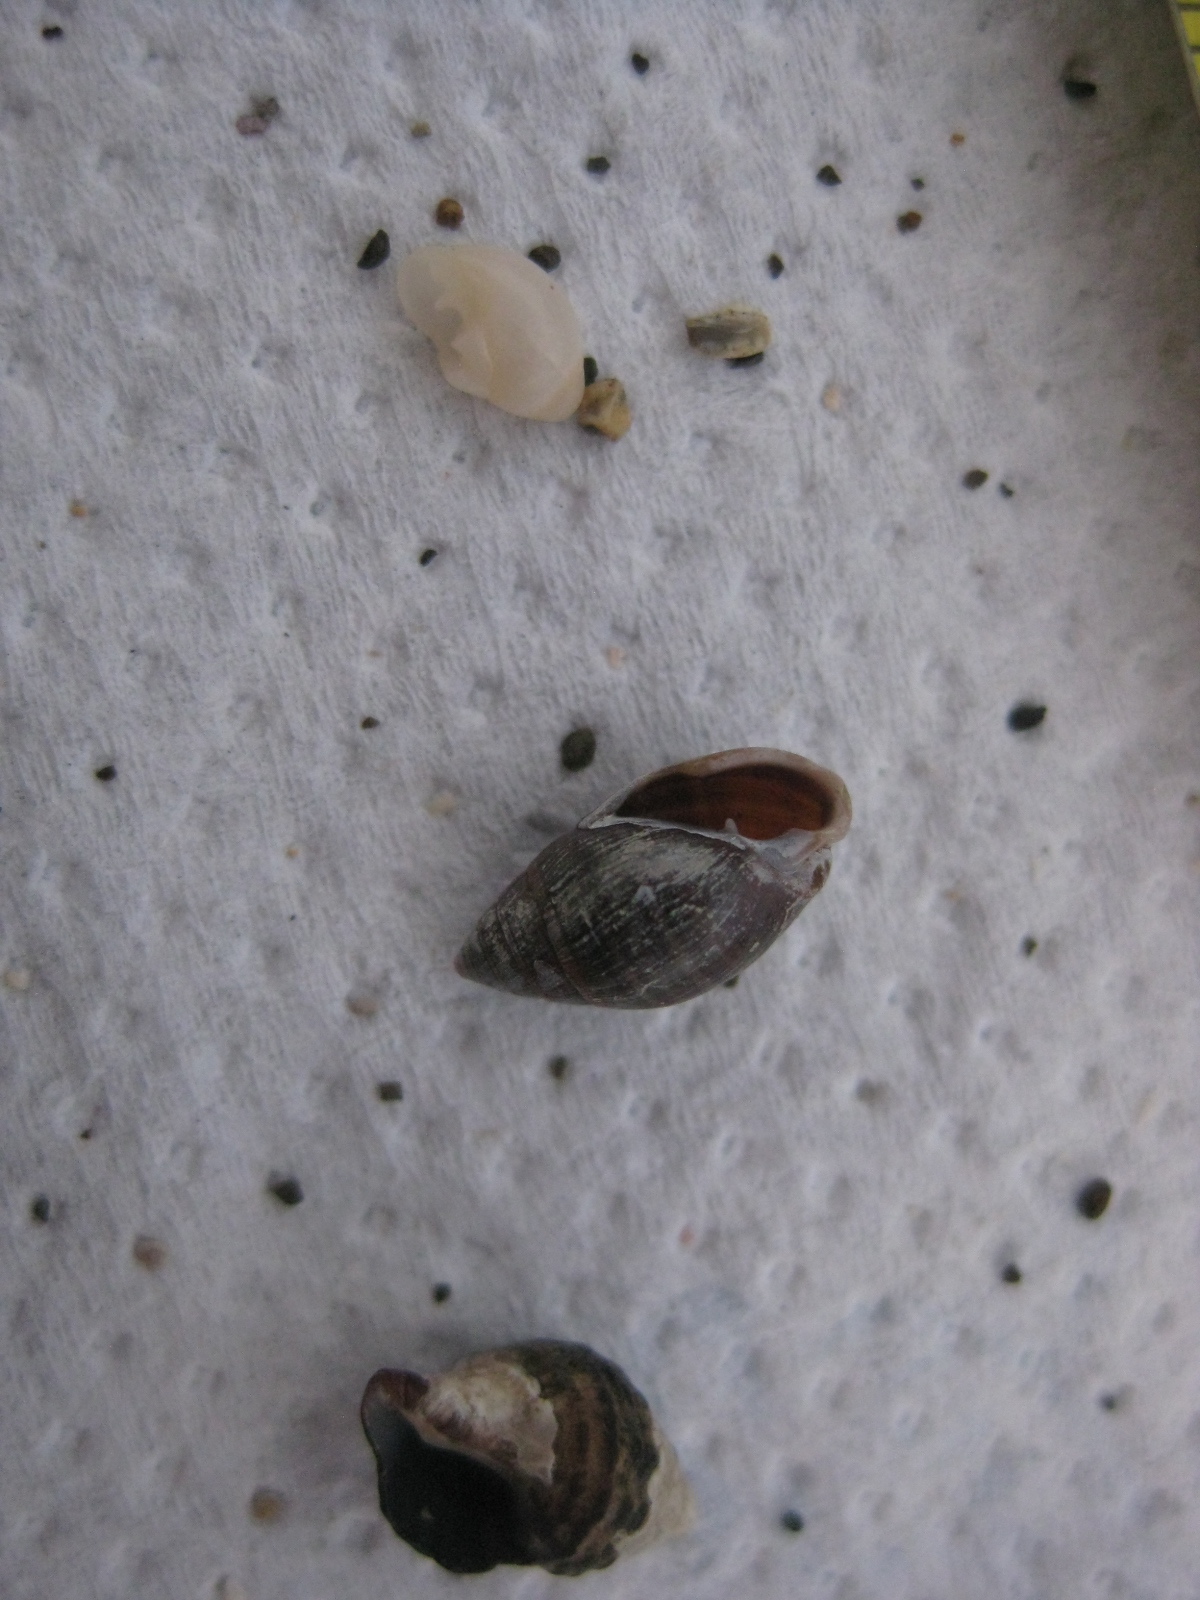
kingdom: Animalia
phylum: Mollusca
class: Gastropoda
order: Ellobiida
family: Ellobiidae
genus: Pleuroloba
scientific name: Pleuroloba costellaris
